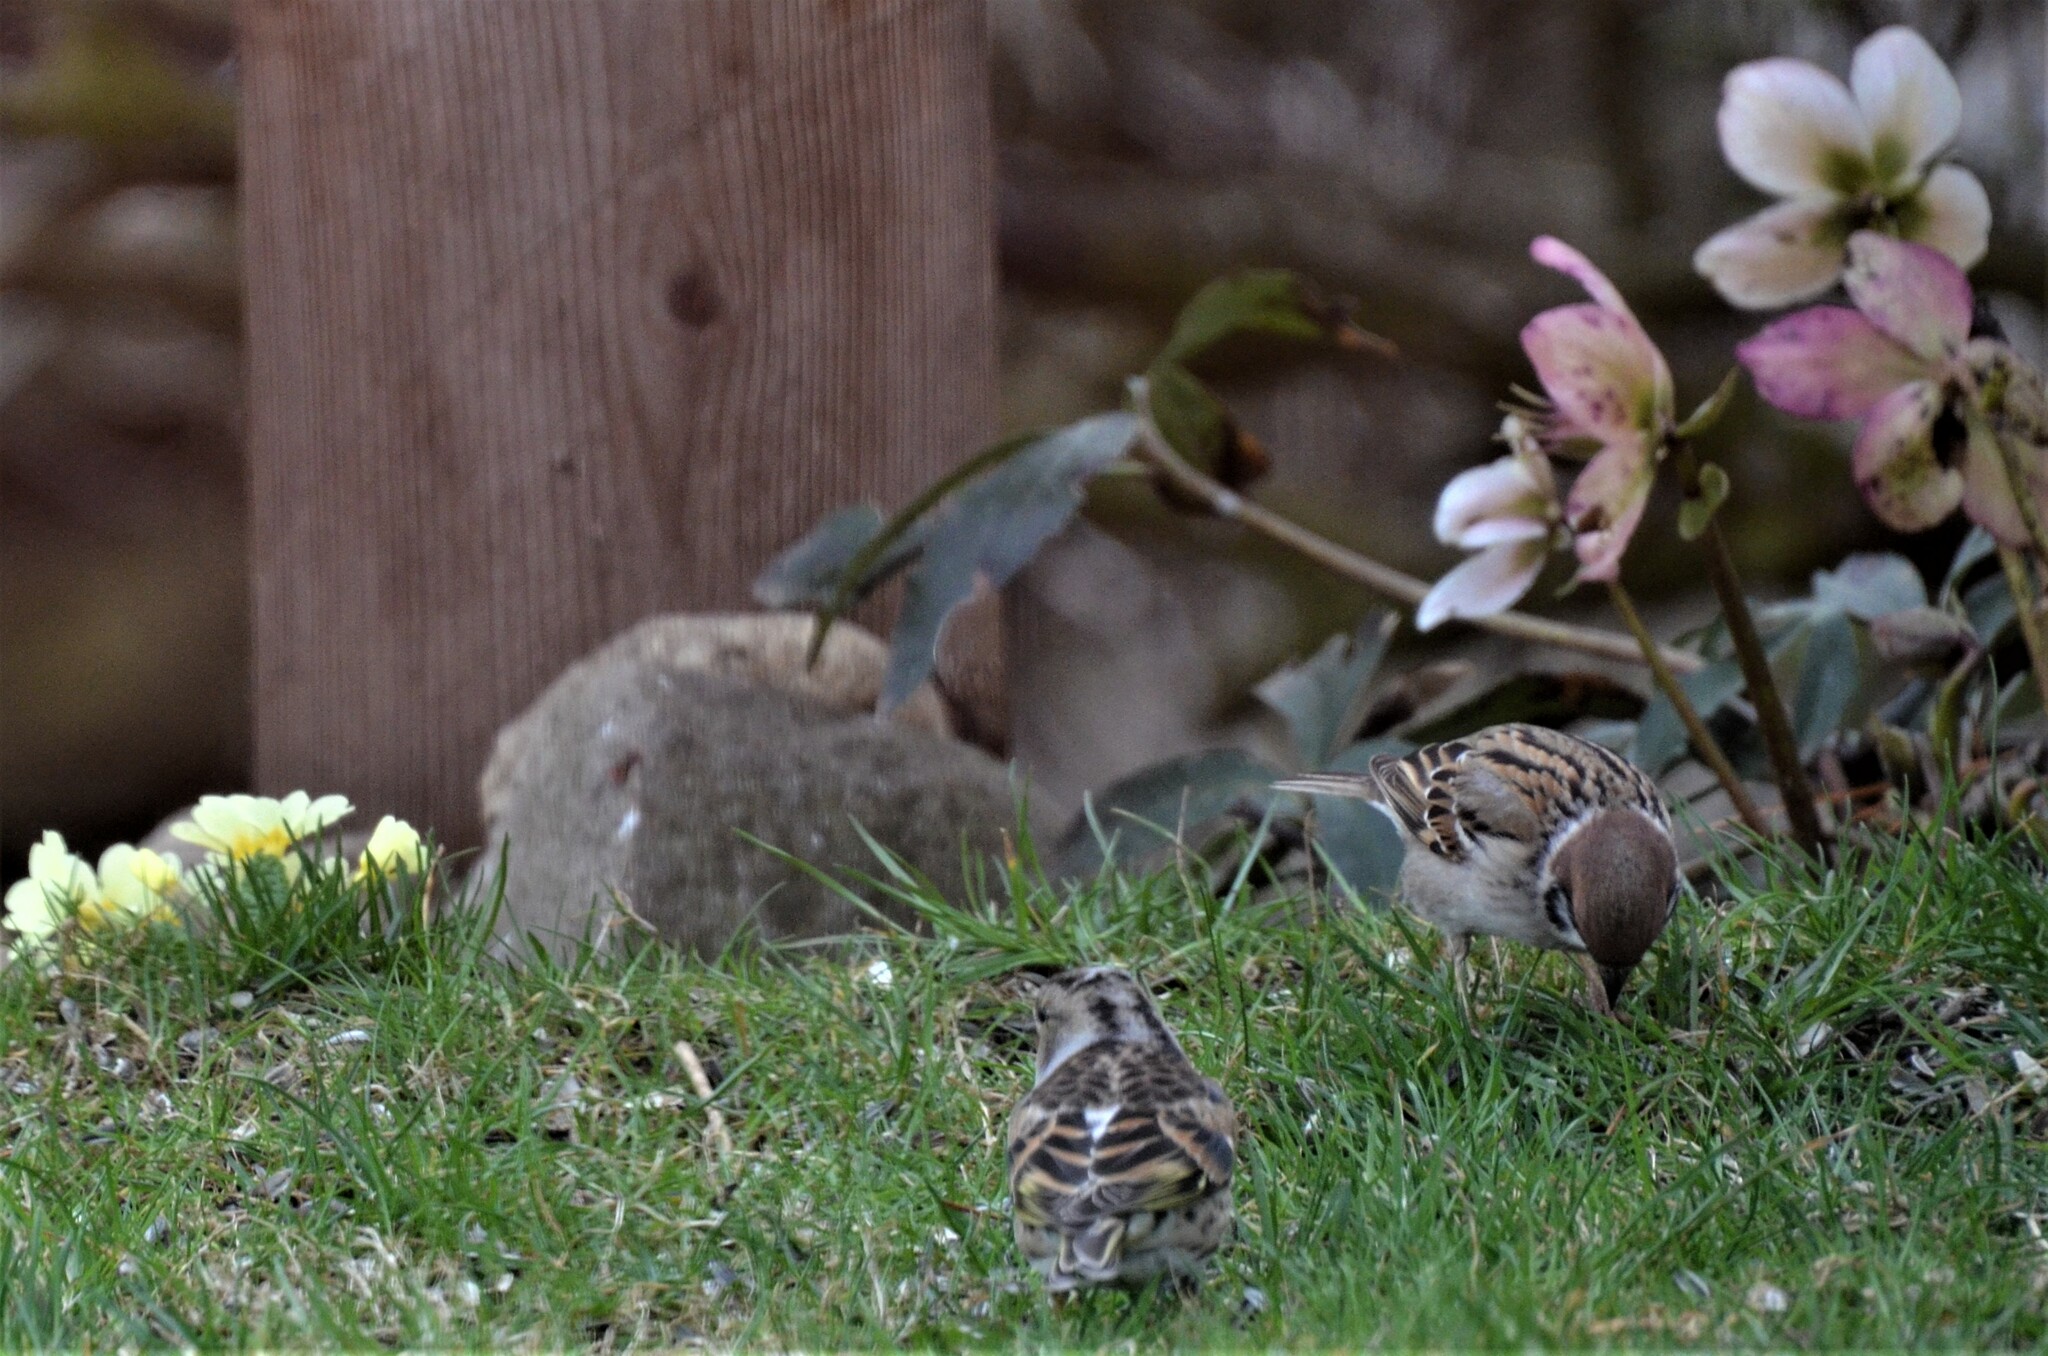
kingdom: Animalia
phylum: Chordata
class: Aves
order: Passeriformes
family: Passeridae
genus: Passer
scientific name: Passer montanus
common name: Eurasian tree sparrow
